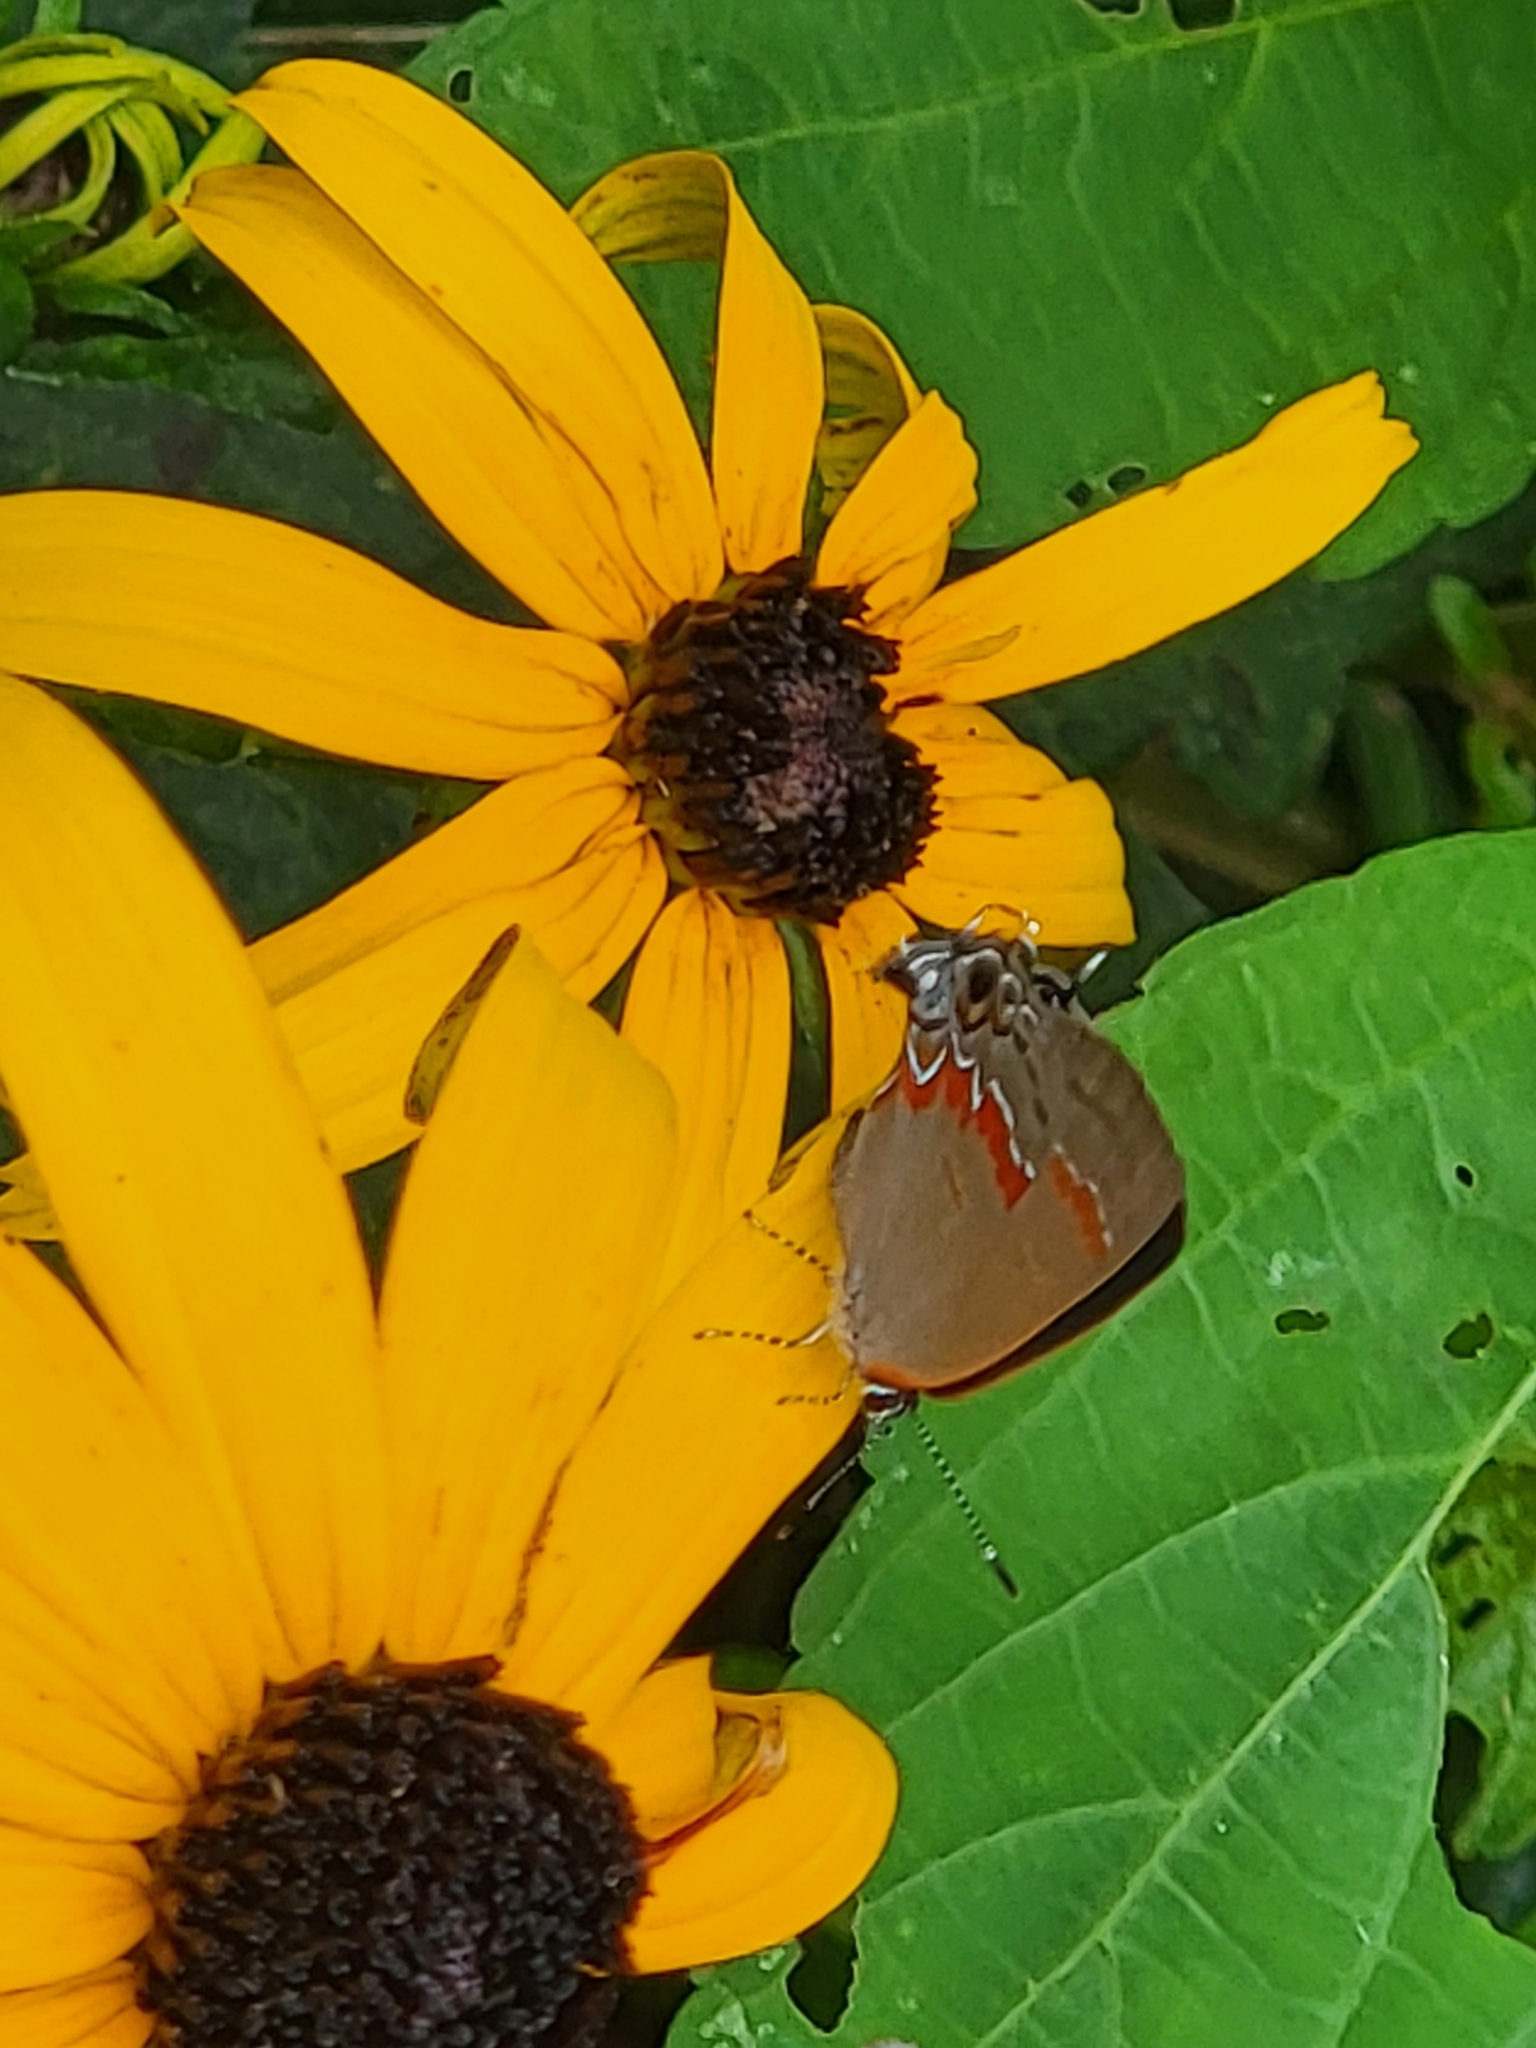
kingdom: Animalia
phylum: Arthropoda
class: Insecta
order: Lepidoptera
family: Lycaenidae
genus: Calycopis
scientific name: Calycopis cecrops
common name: Red-banded hairstreak
